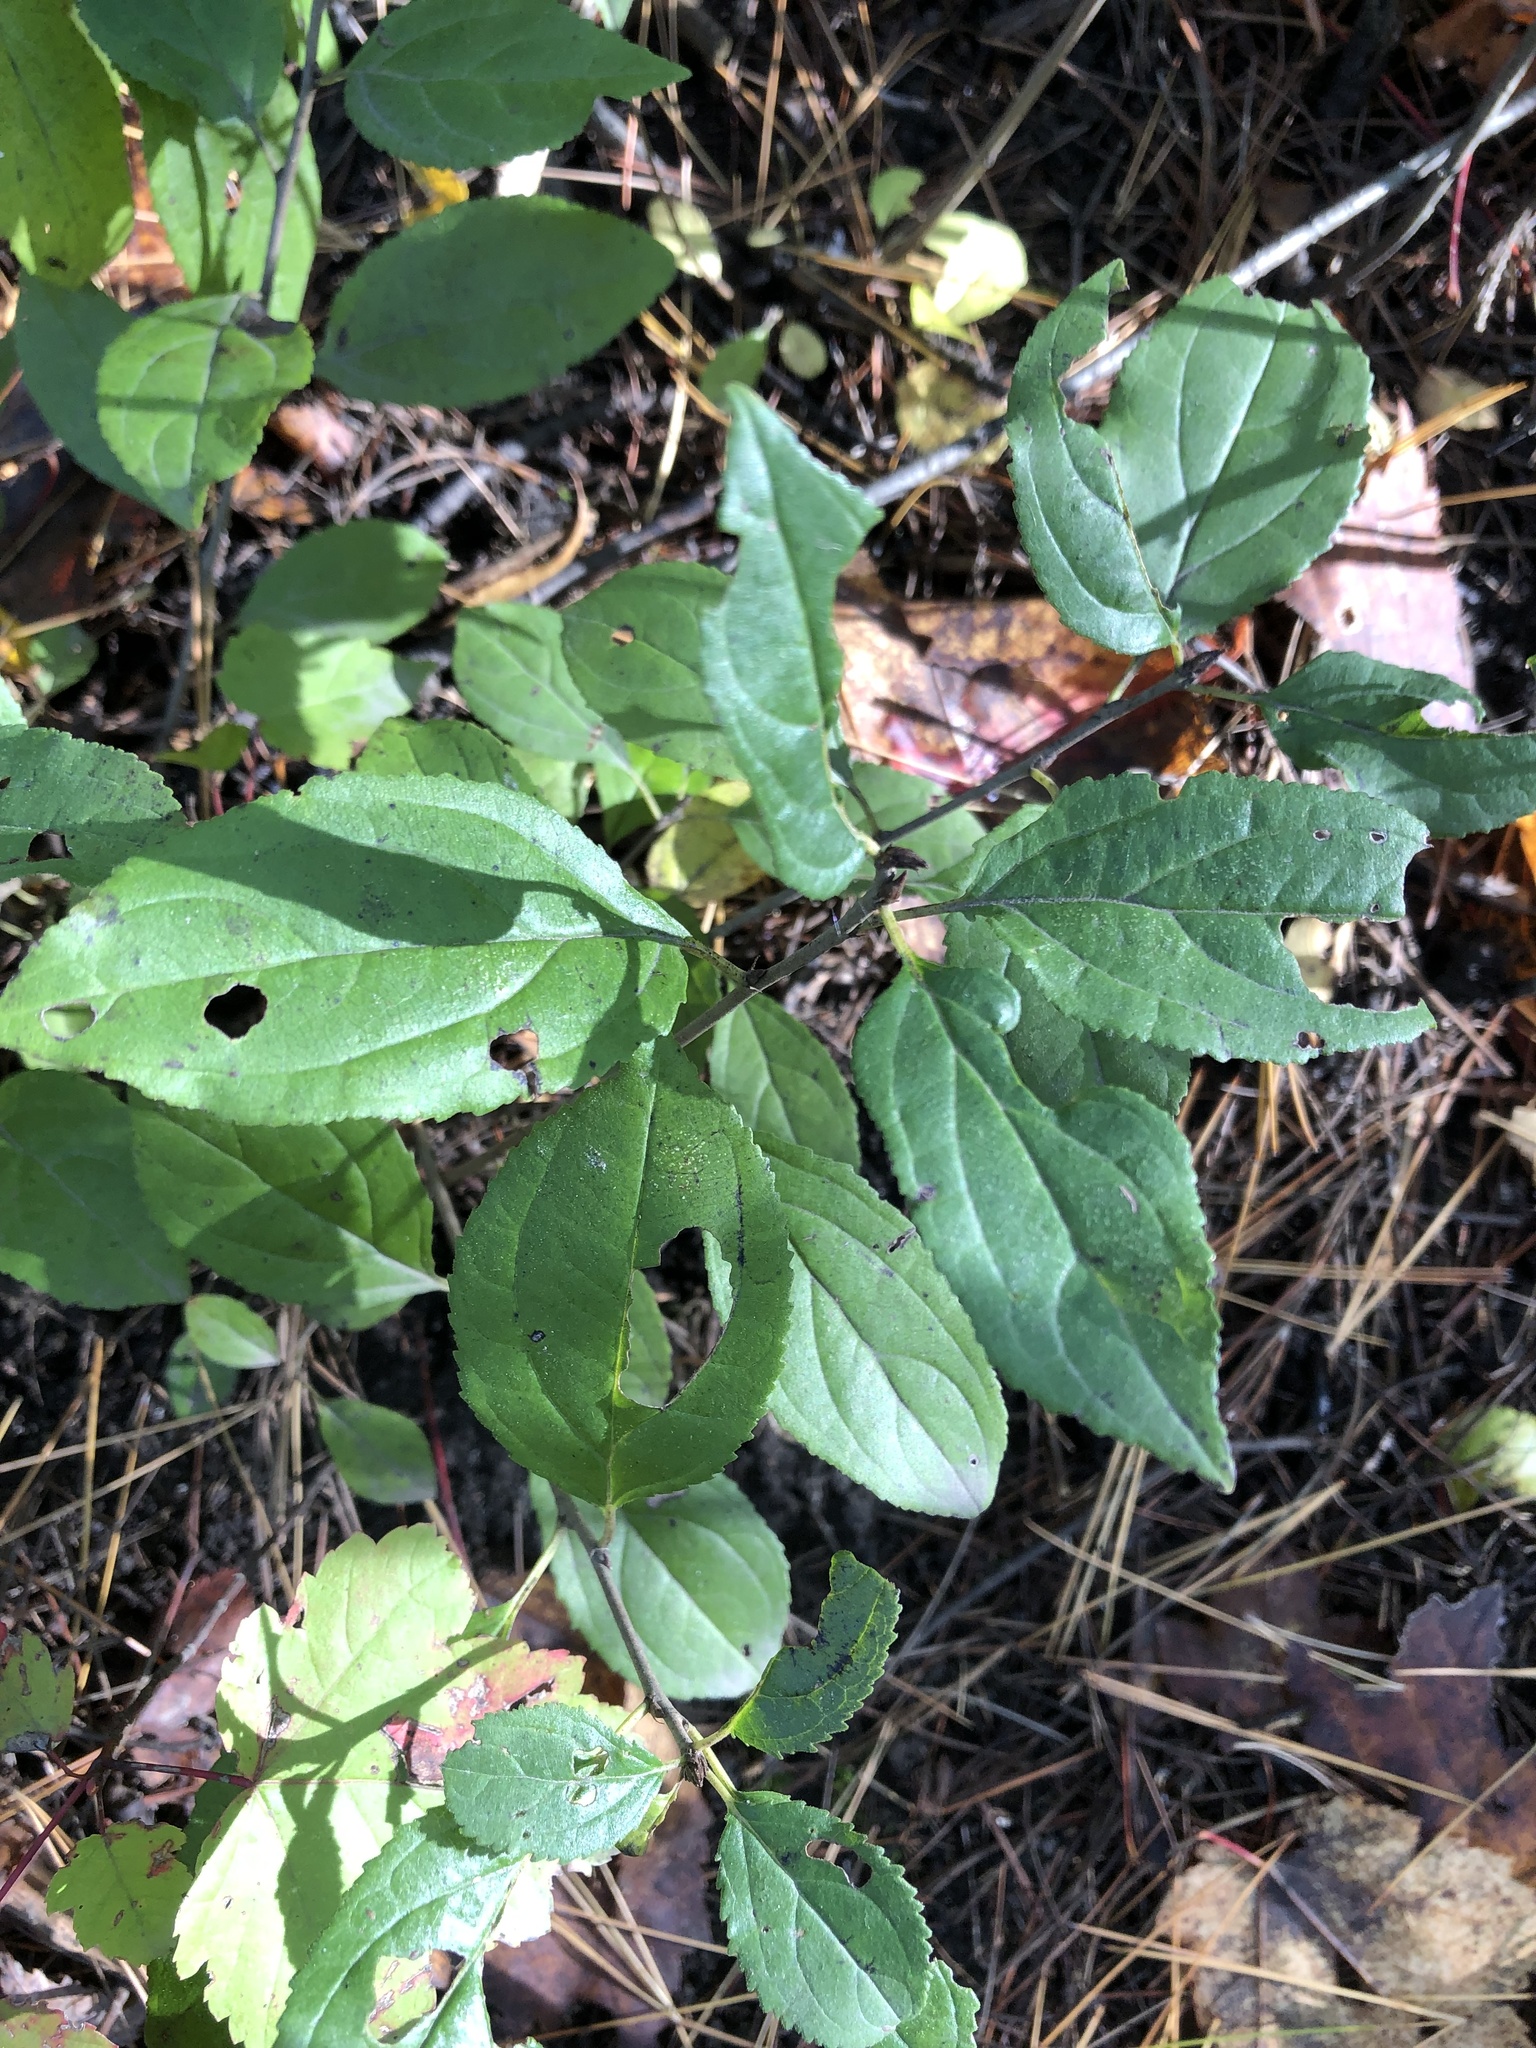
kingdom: Plantae
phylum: Tracheophyta
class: Magnoliopsida
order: Rosales
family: Rhamnaceae
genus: Rhamnus
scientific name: Rhamnus cathartica
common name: Common buckthorn
